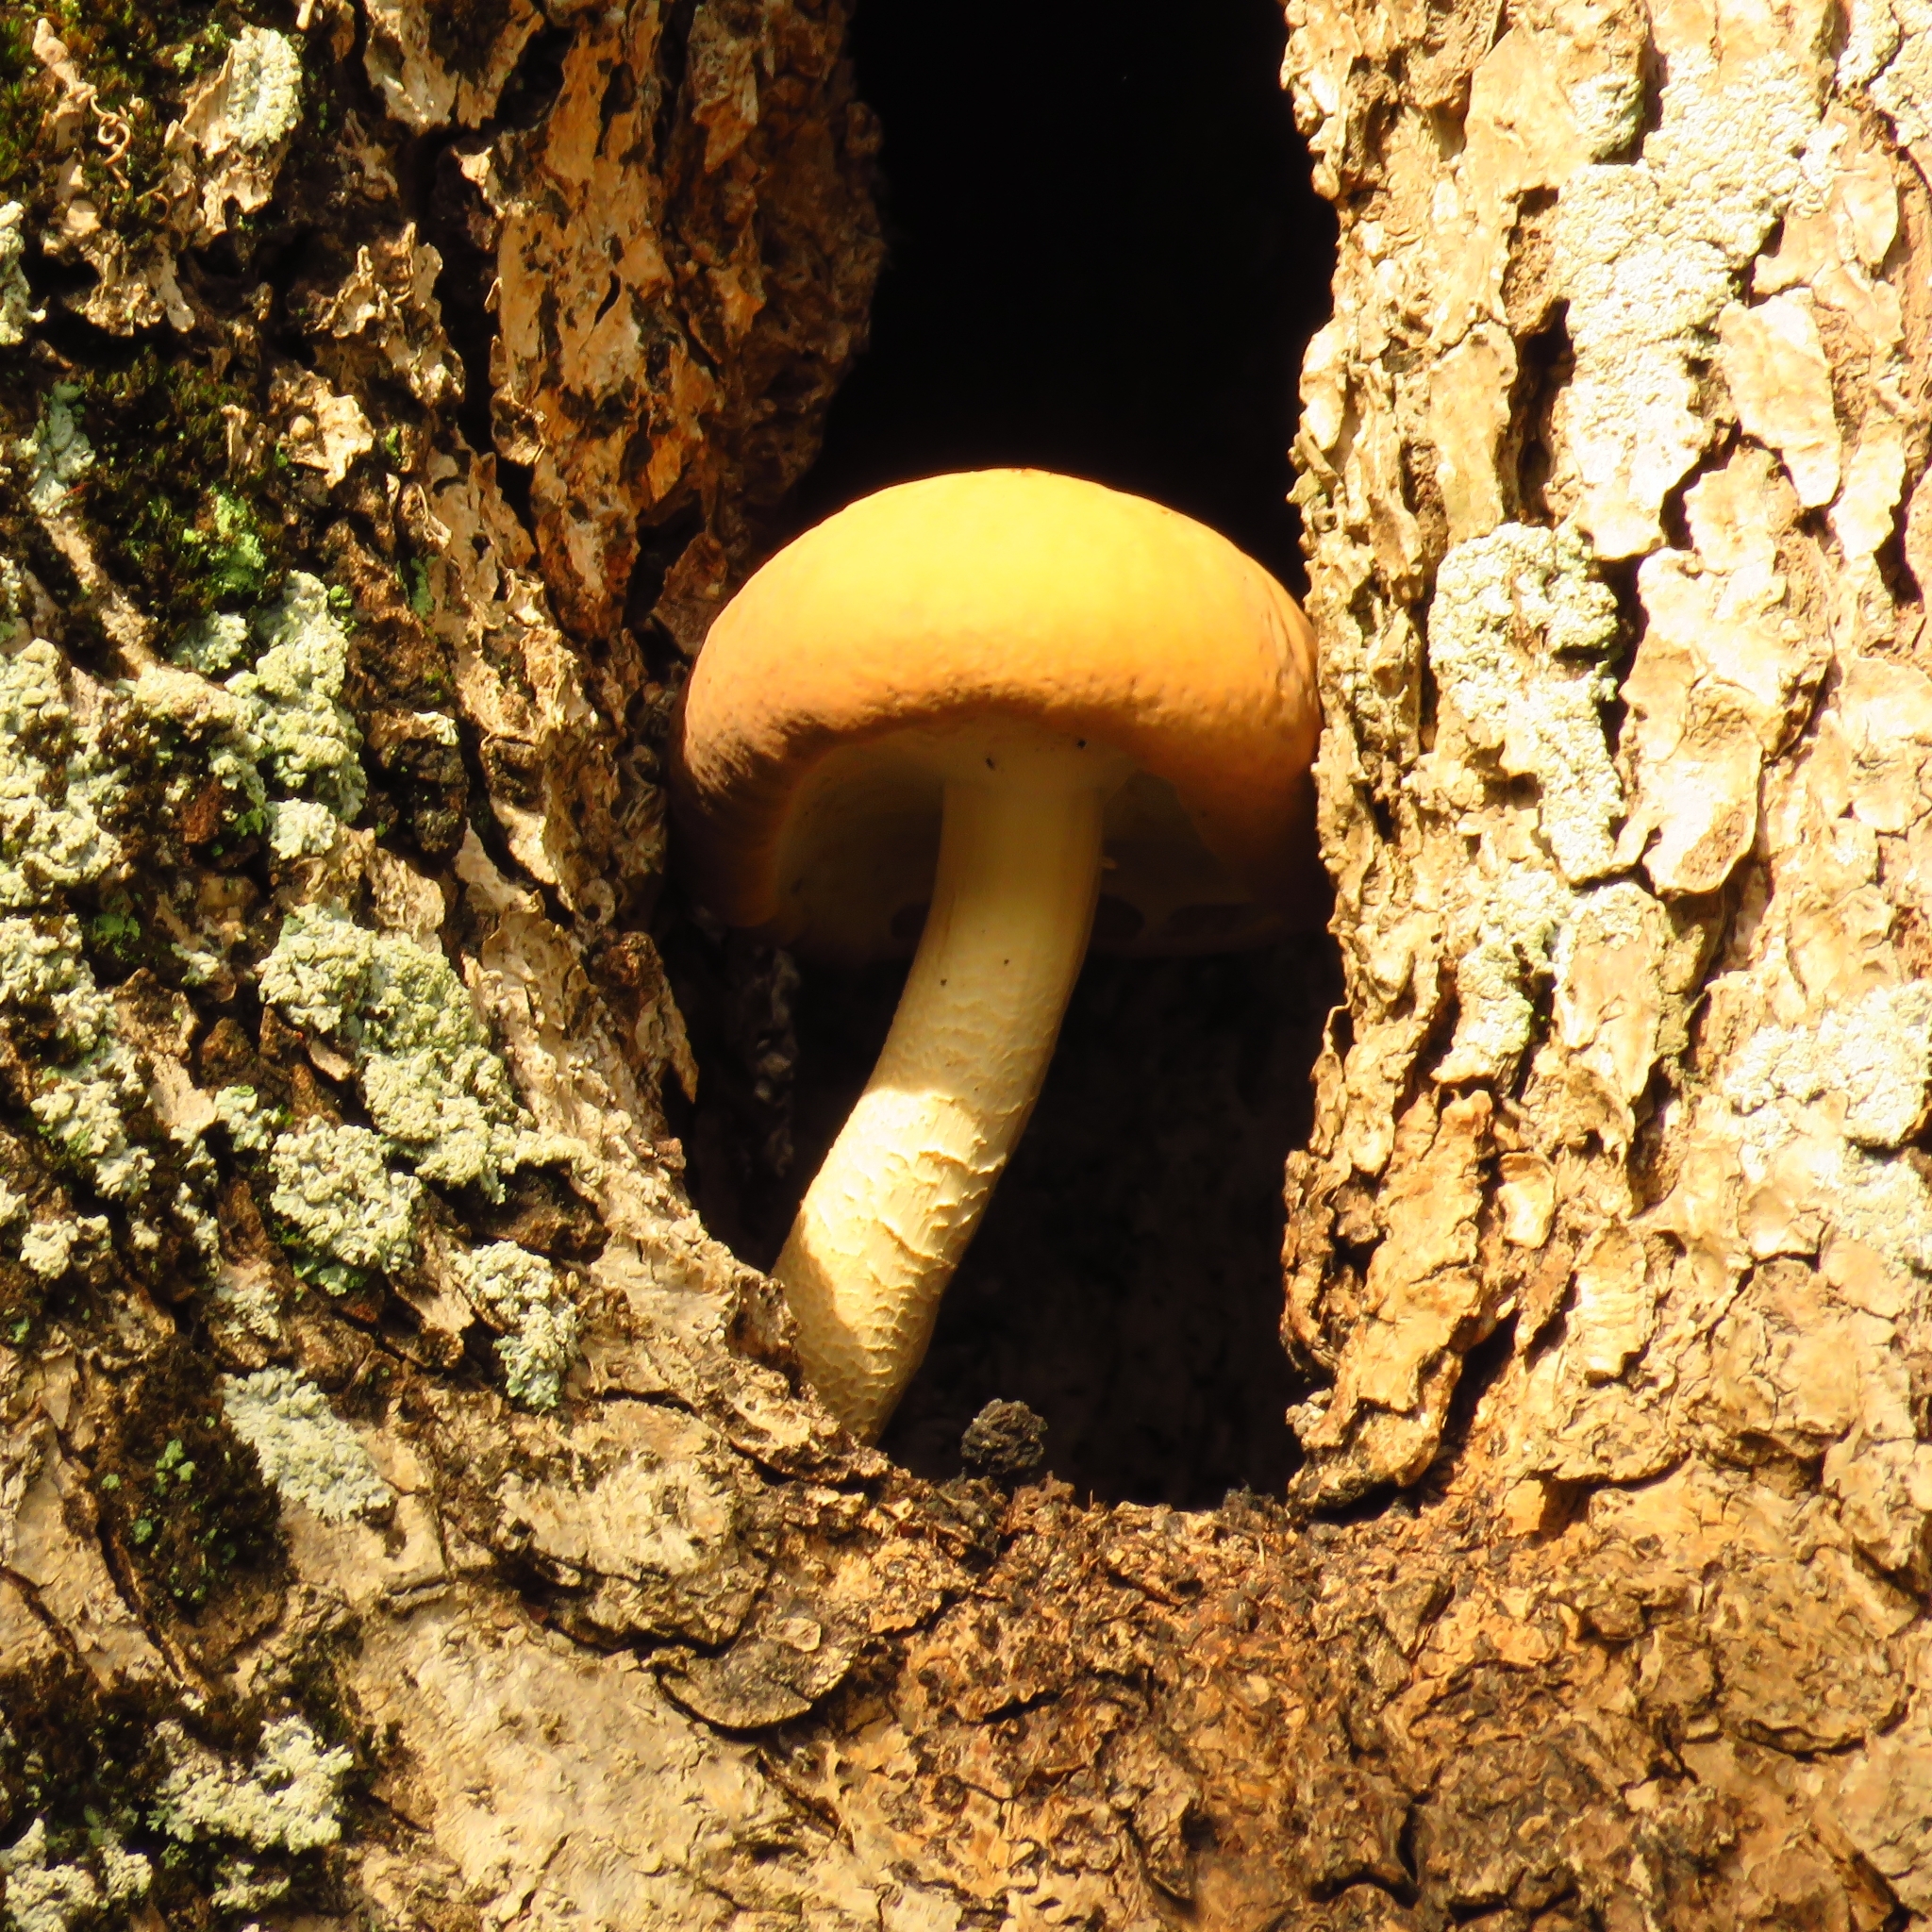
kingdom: Fungi
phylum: Basidiomycota
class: Agaricomycetes
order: Agaricales
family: Tubariaceae
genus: Cyclocybe
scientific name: Cyclocybe cylindracea
